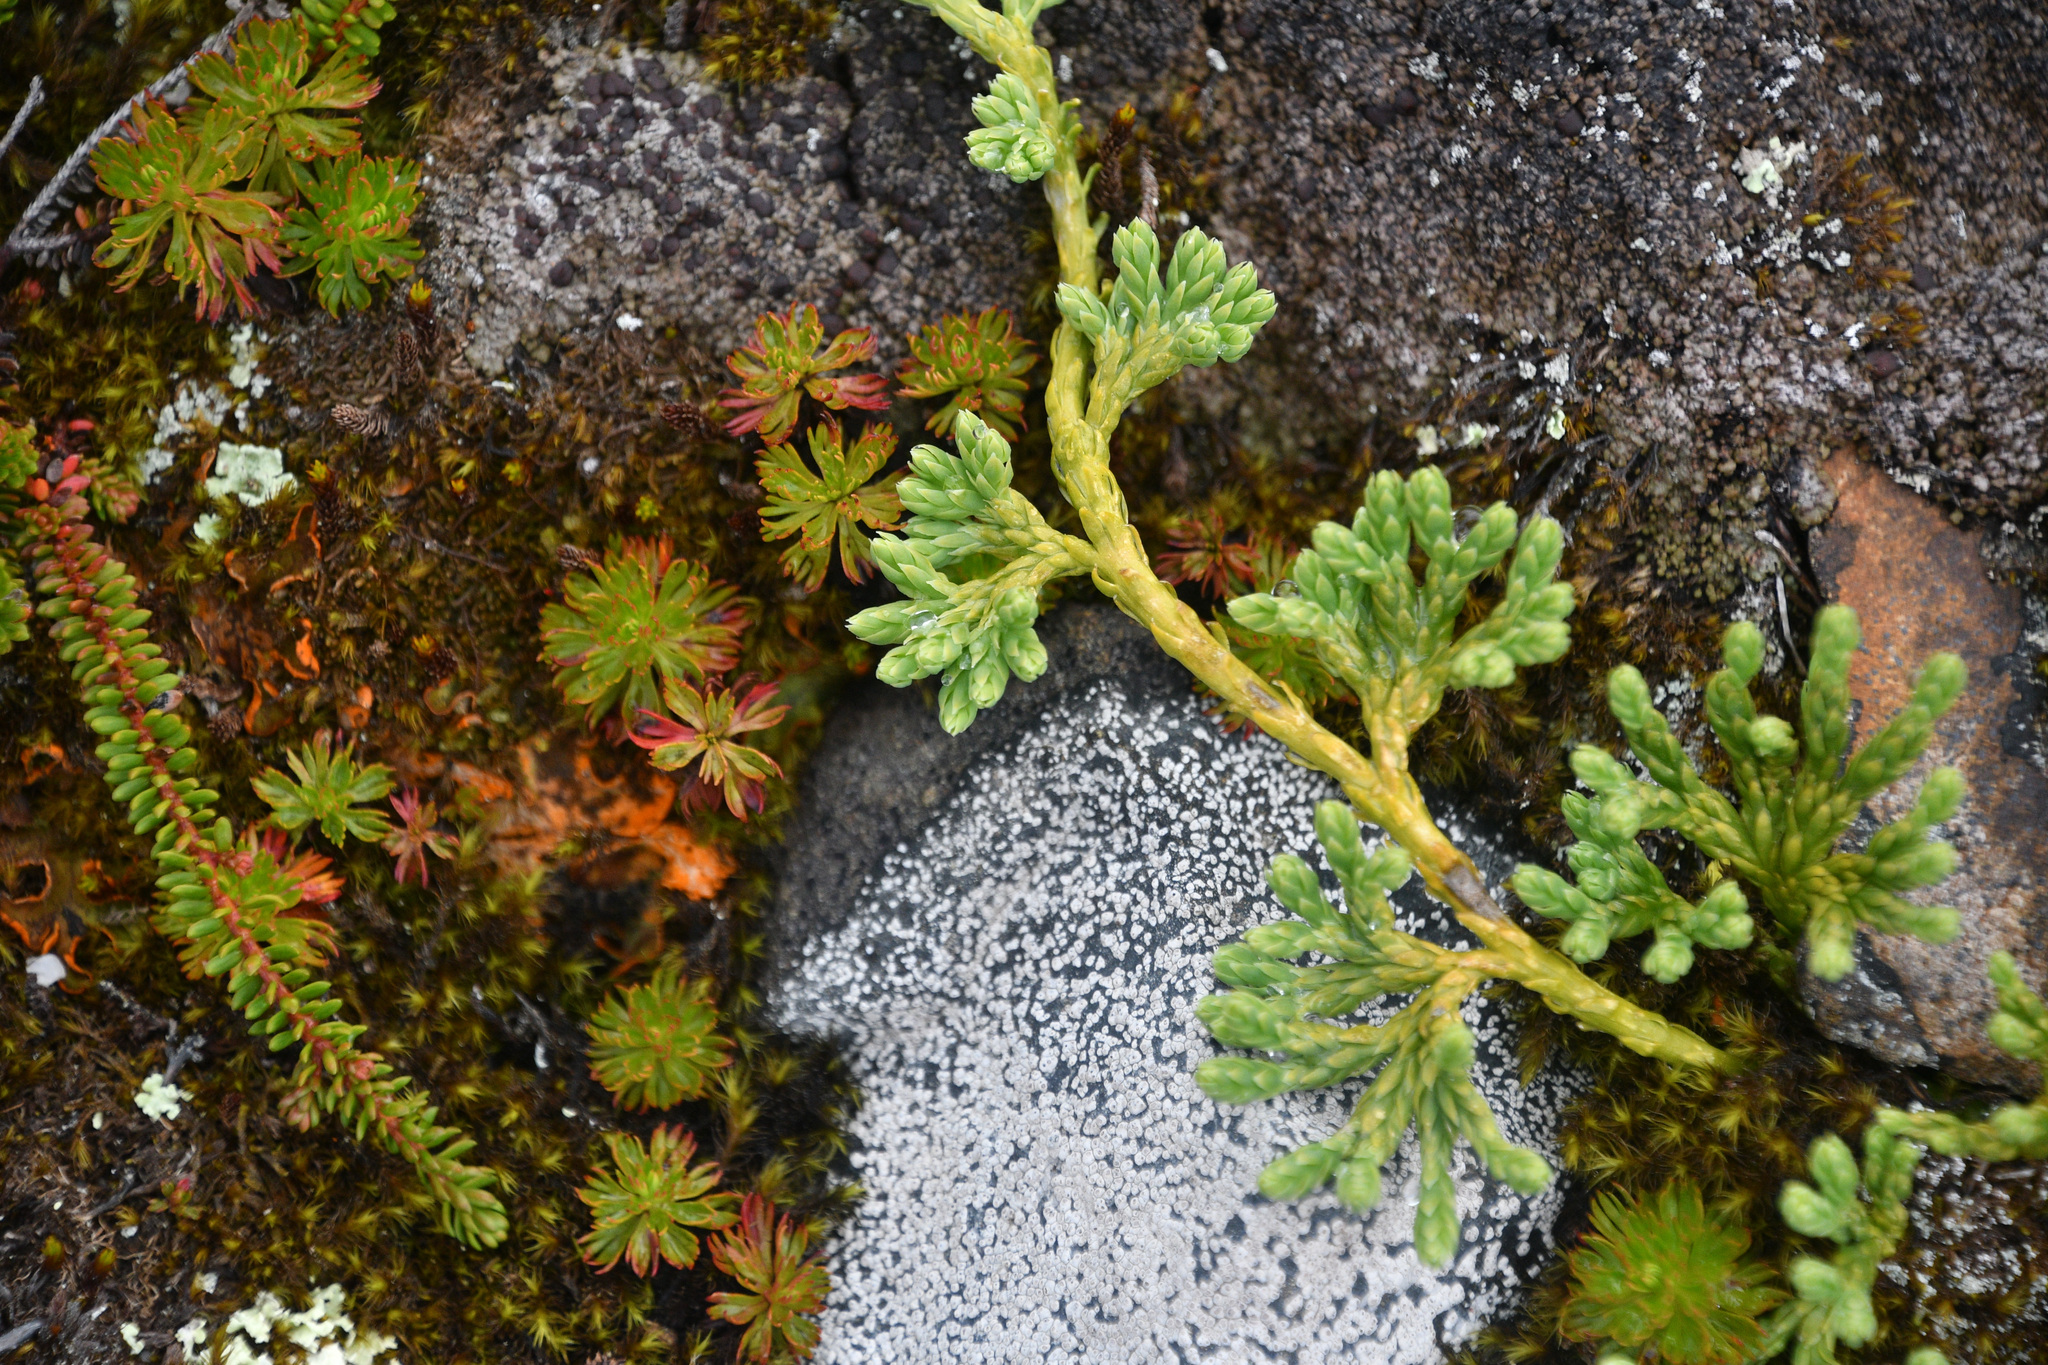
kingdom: Plantae
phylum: Tracheophyta
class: Lycopodiopsida
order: Lycopodiales
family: Lycopodiaceae
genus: Diphasiastrum
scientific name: Diphasiastrum alpinum
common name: Alpine clubmoss
